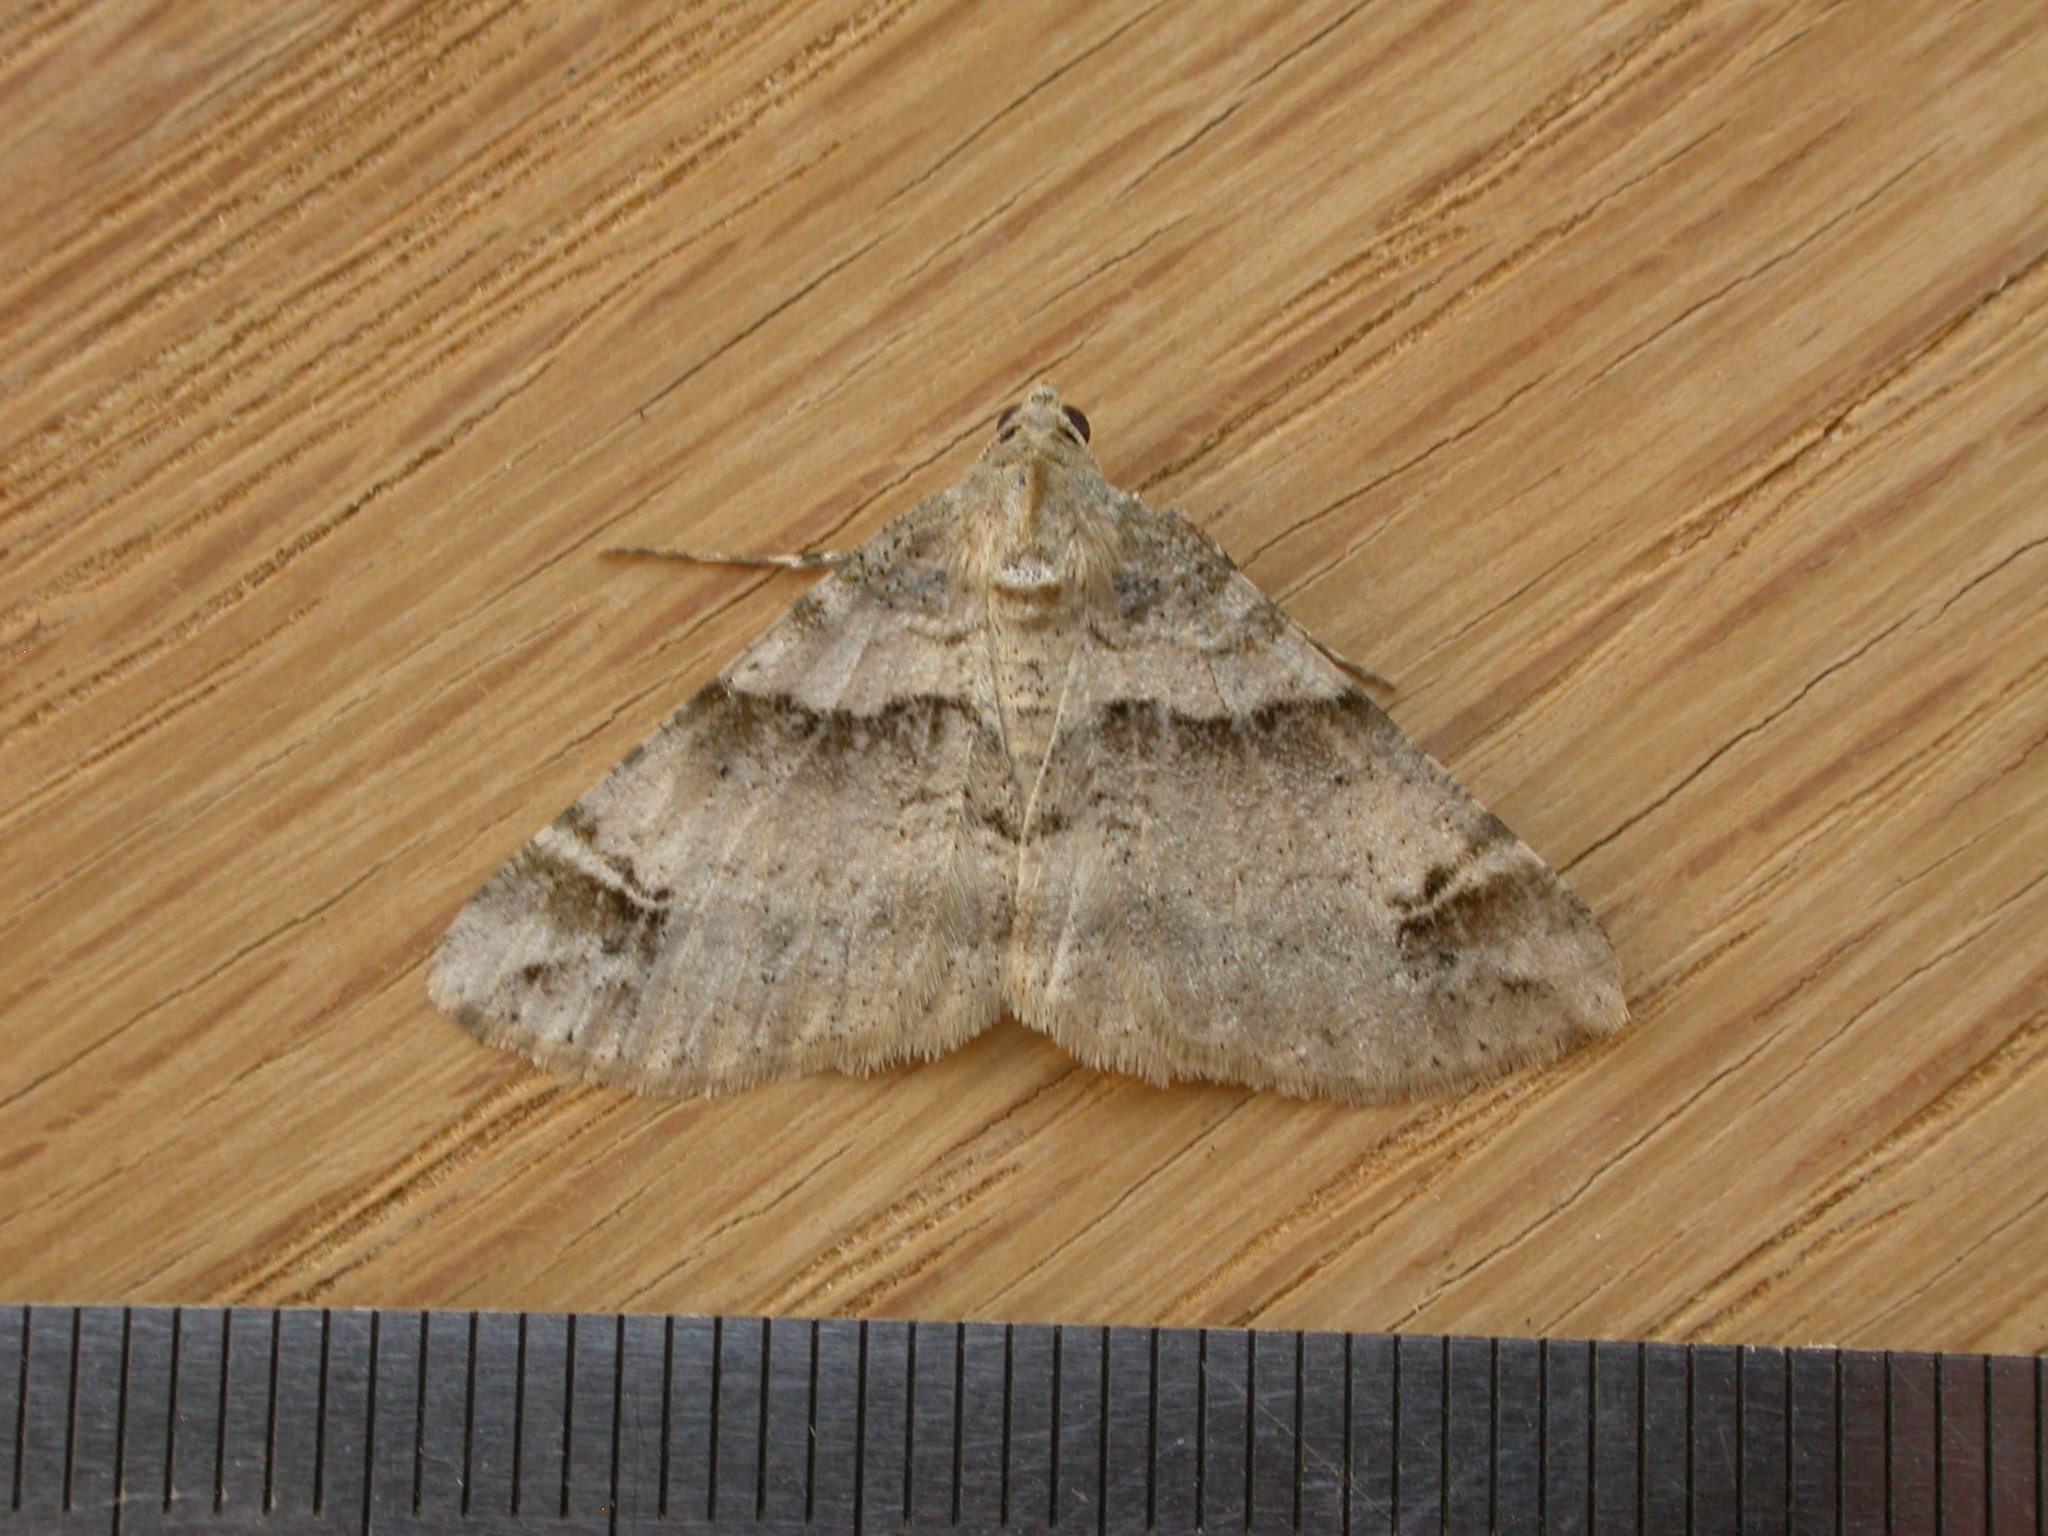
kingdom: Animalia
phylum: Arthropoda
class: Insecta
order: Lepidoptera
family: Geometridae
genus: Syneora
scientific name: Syneora hemeropa
